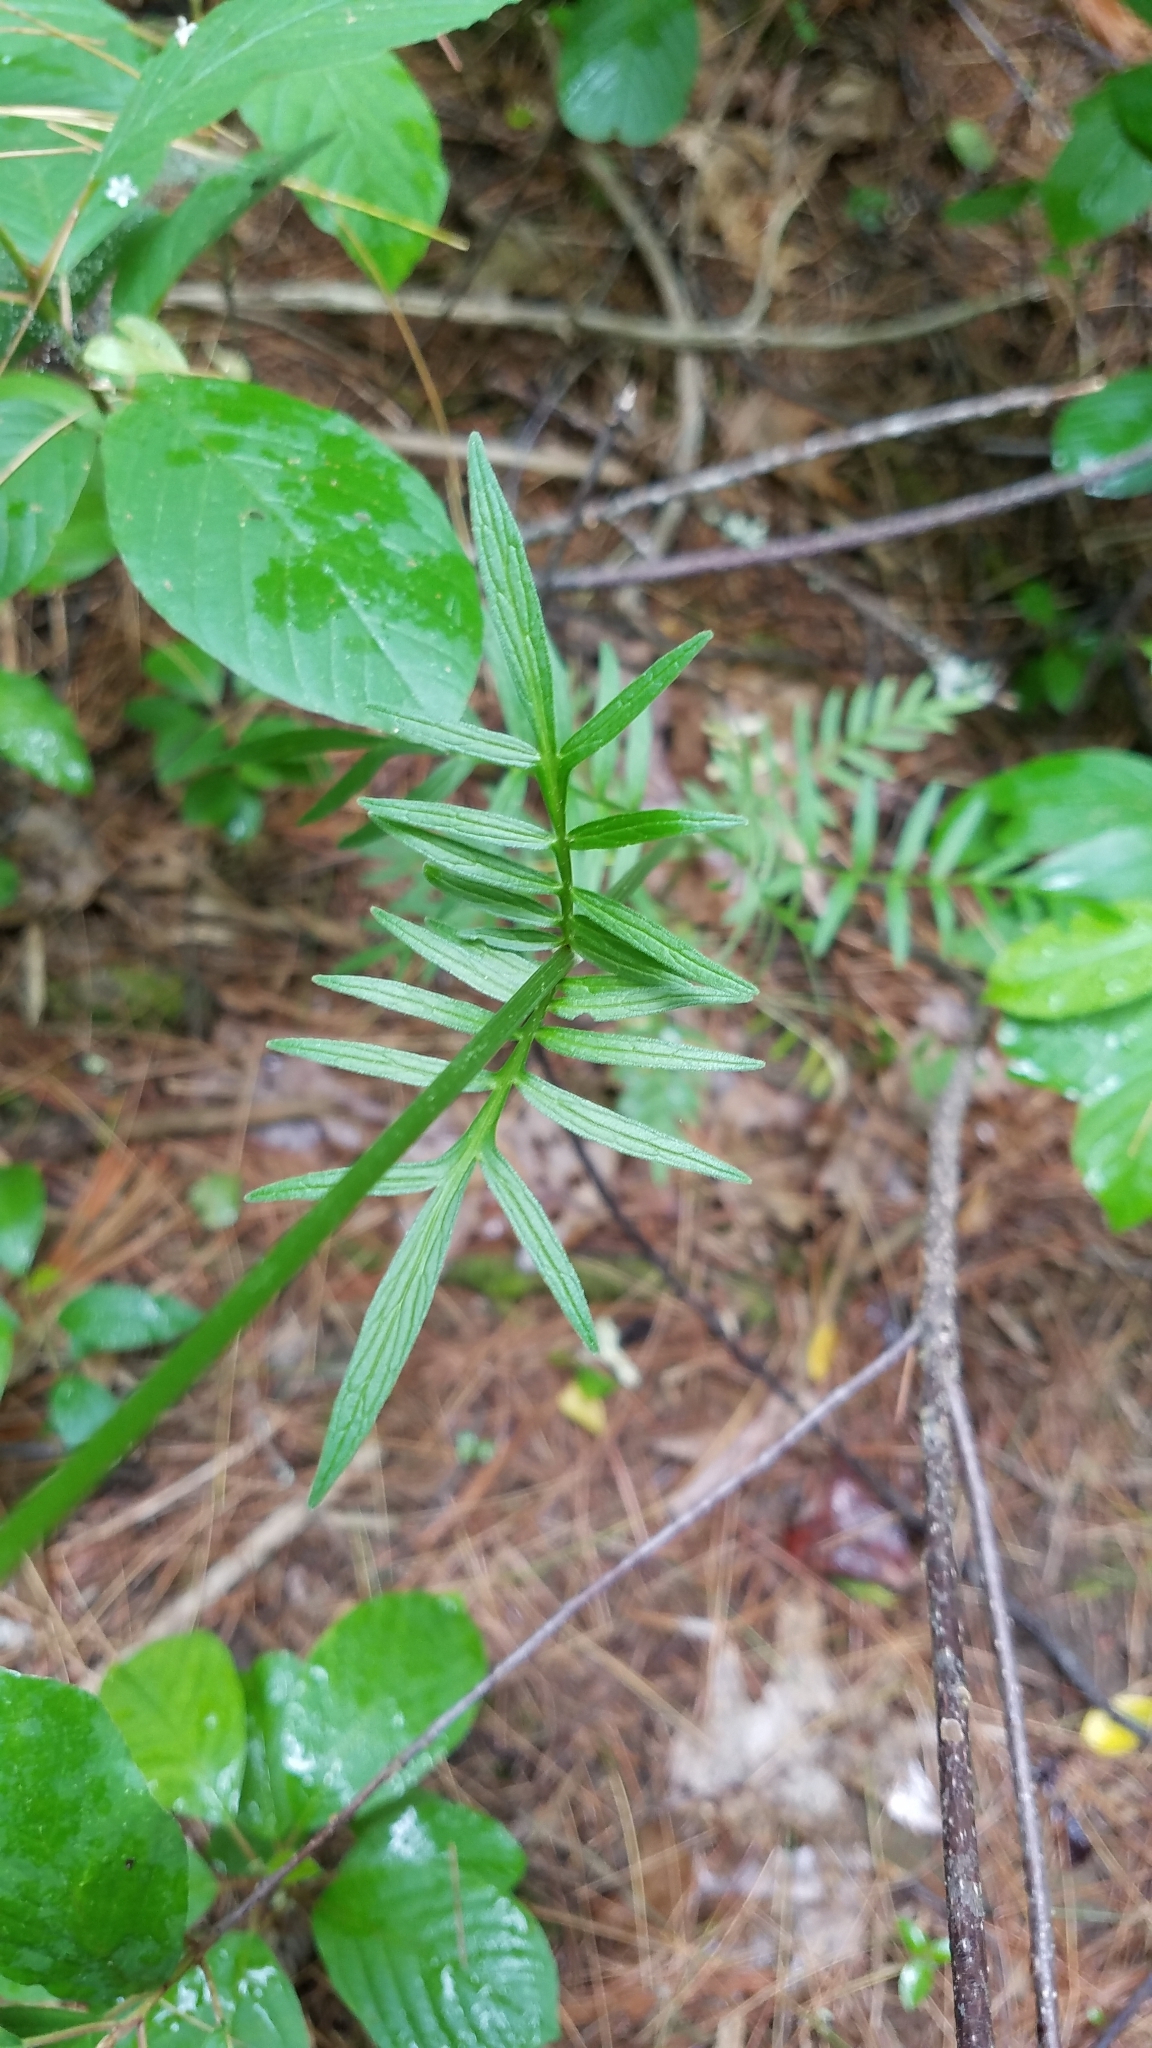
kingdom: Plantae
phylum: Tracheophyta
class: Magnoliopsida
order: Dipsacales
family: Caprifoliaceae
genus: Valeriana
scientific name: Valeriana officinalis
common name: Common valerian
